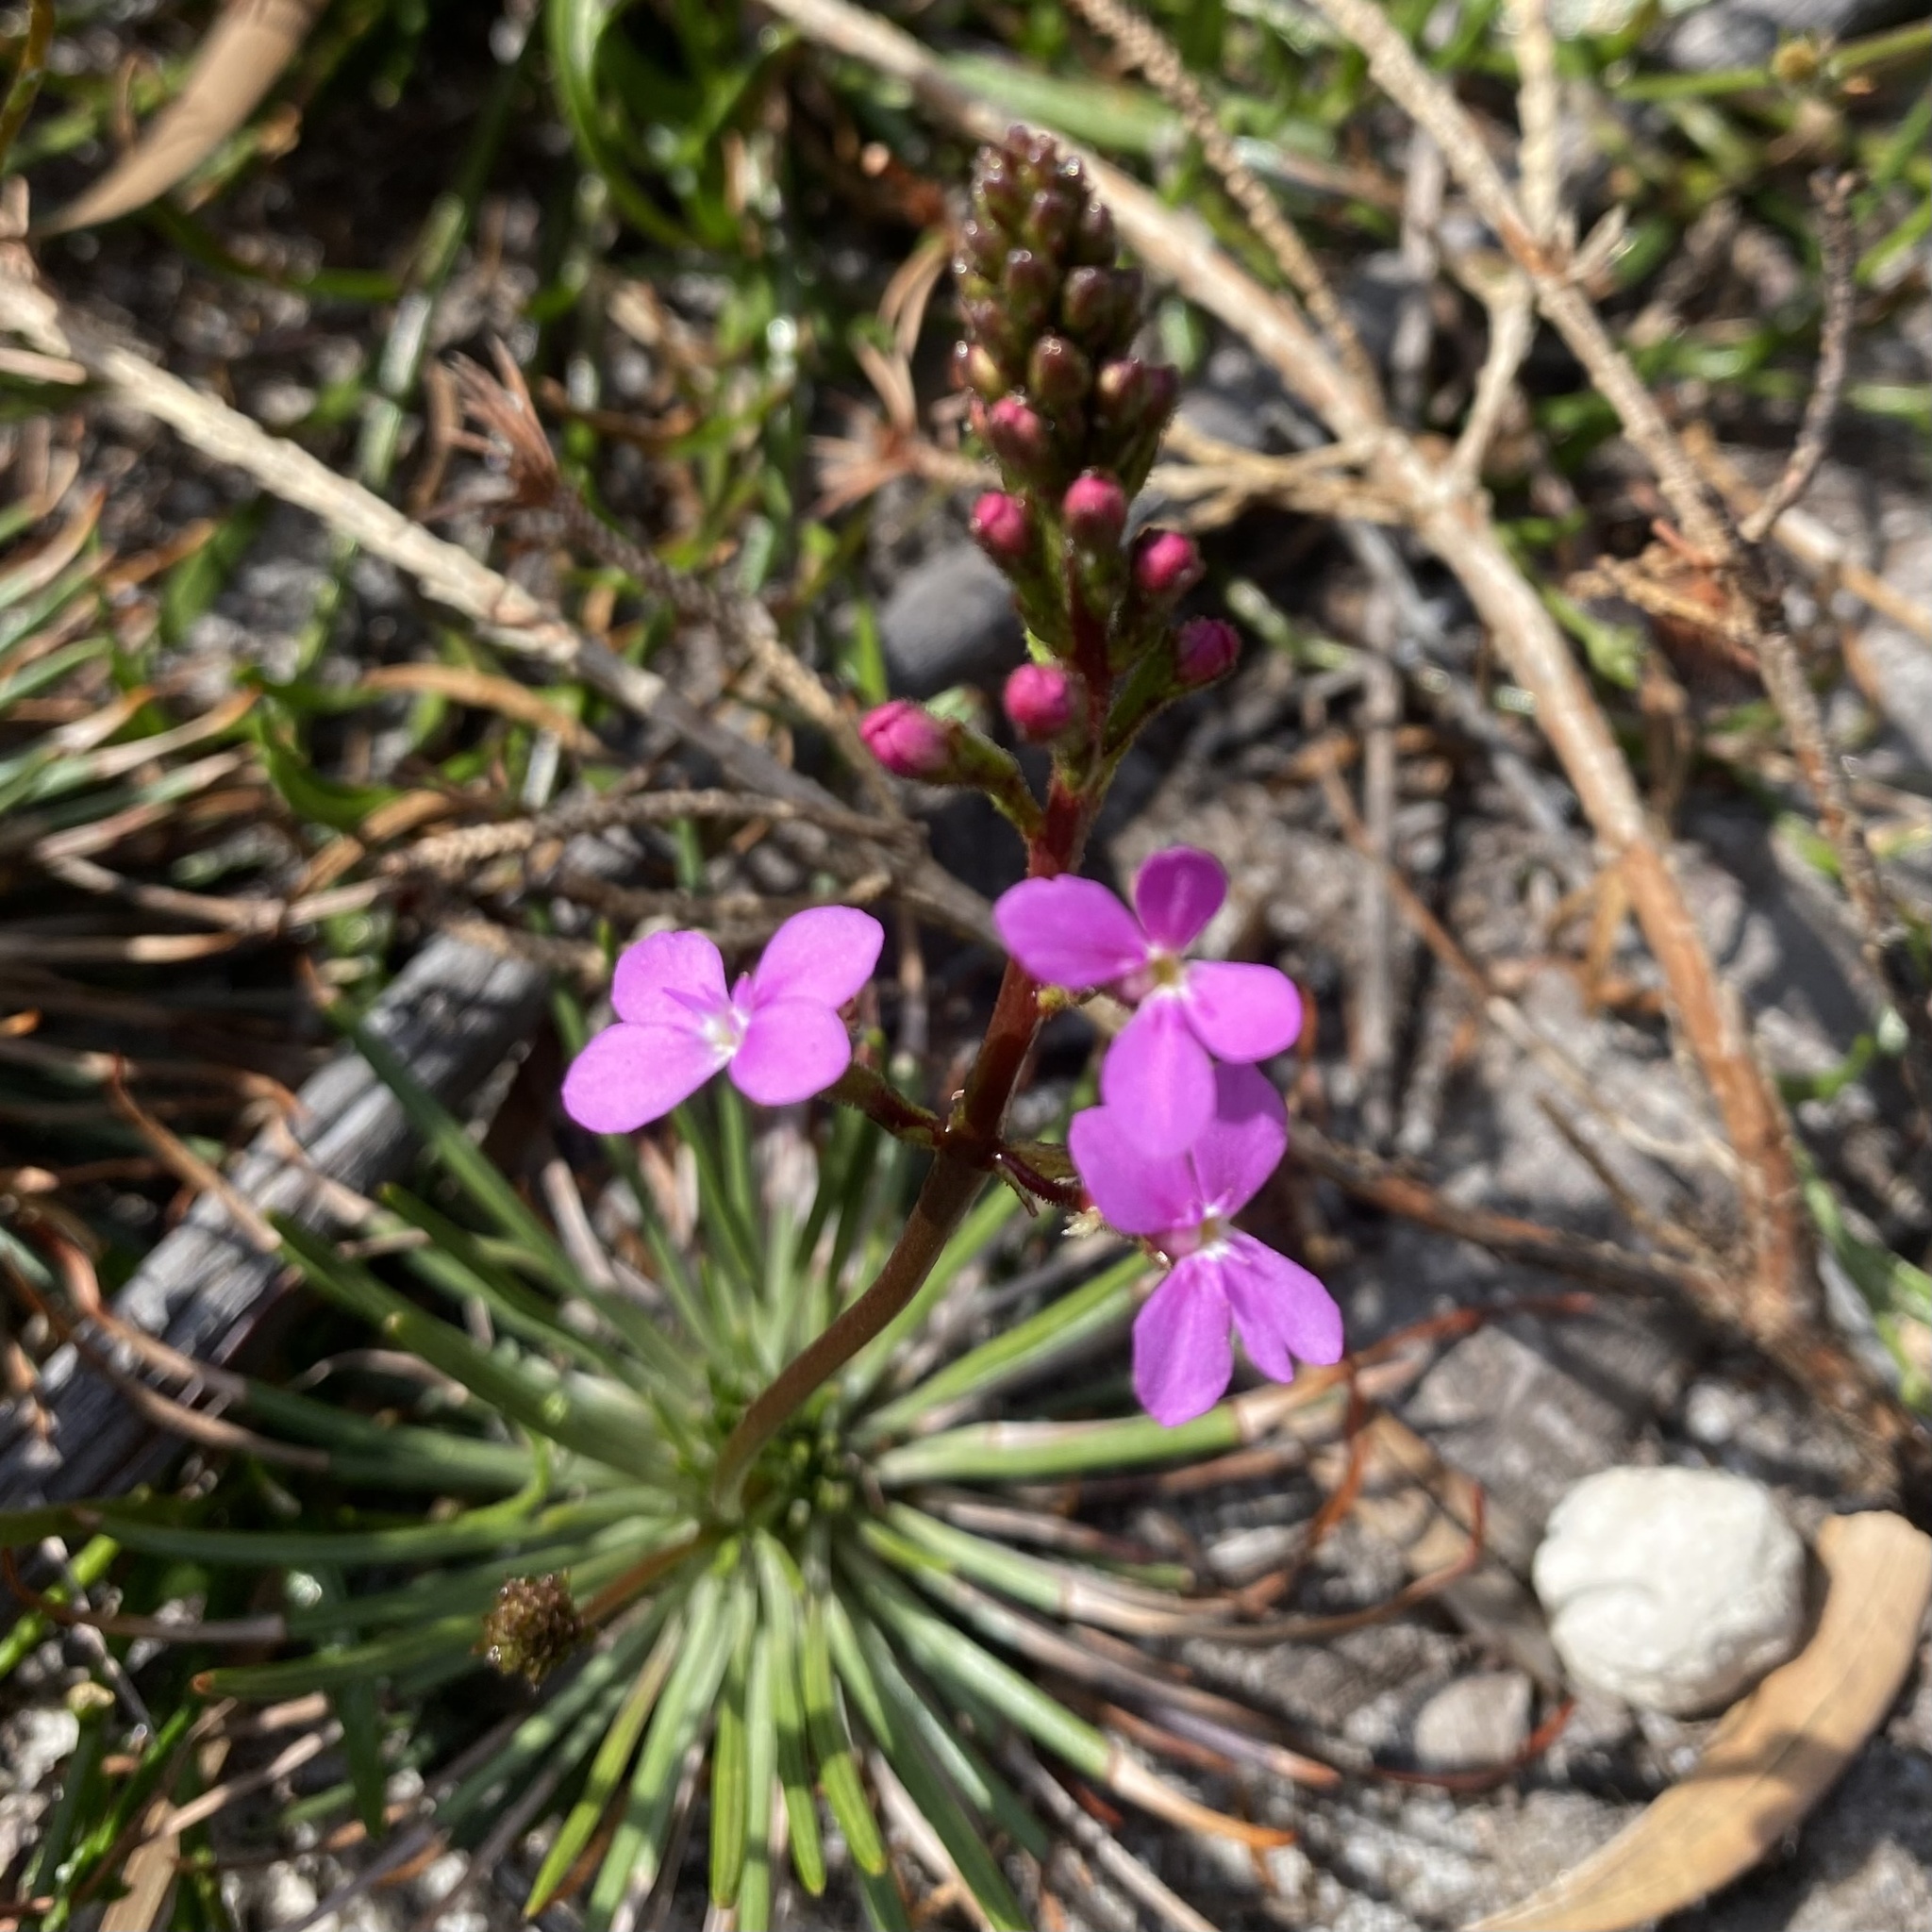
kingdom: Plantae
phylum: Tracheophyta
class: Magnoliopsida
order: Asterales
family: Stylidiaceae
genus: Stylidium
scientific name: Stylidium lineare
